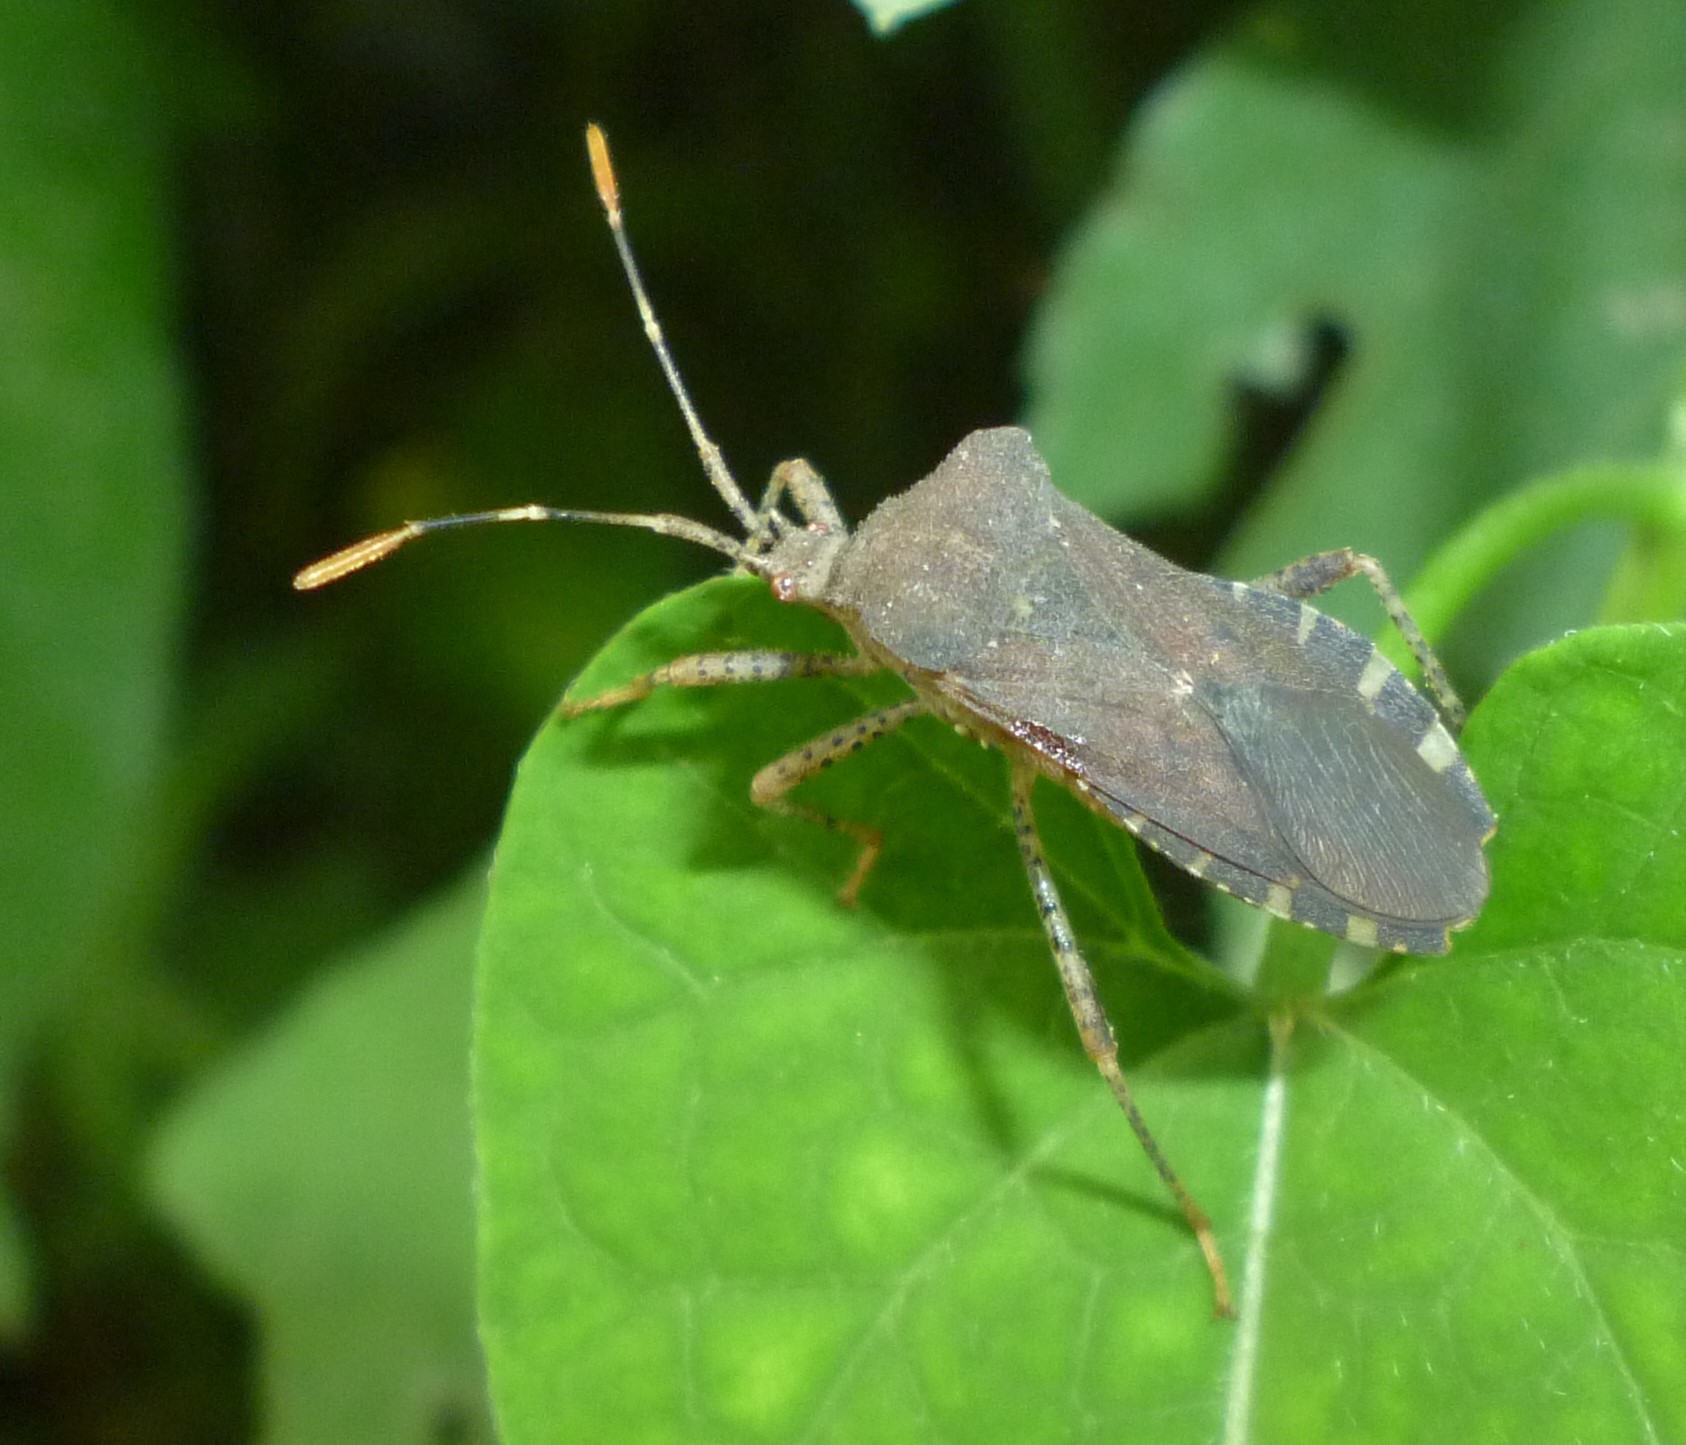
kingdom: Animalia
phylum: Arthropoda
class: Insecta
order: Hemiptera
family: Coreidae
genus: Anasa
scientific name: Anasa armigera
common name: Horned squash bug
